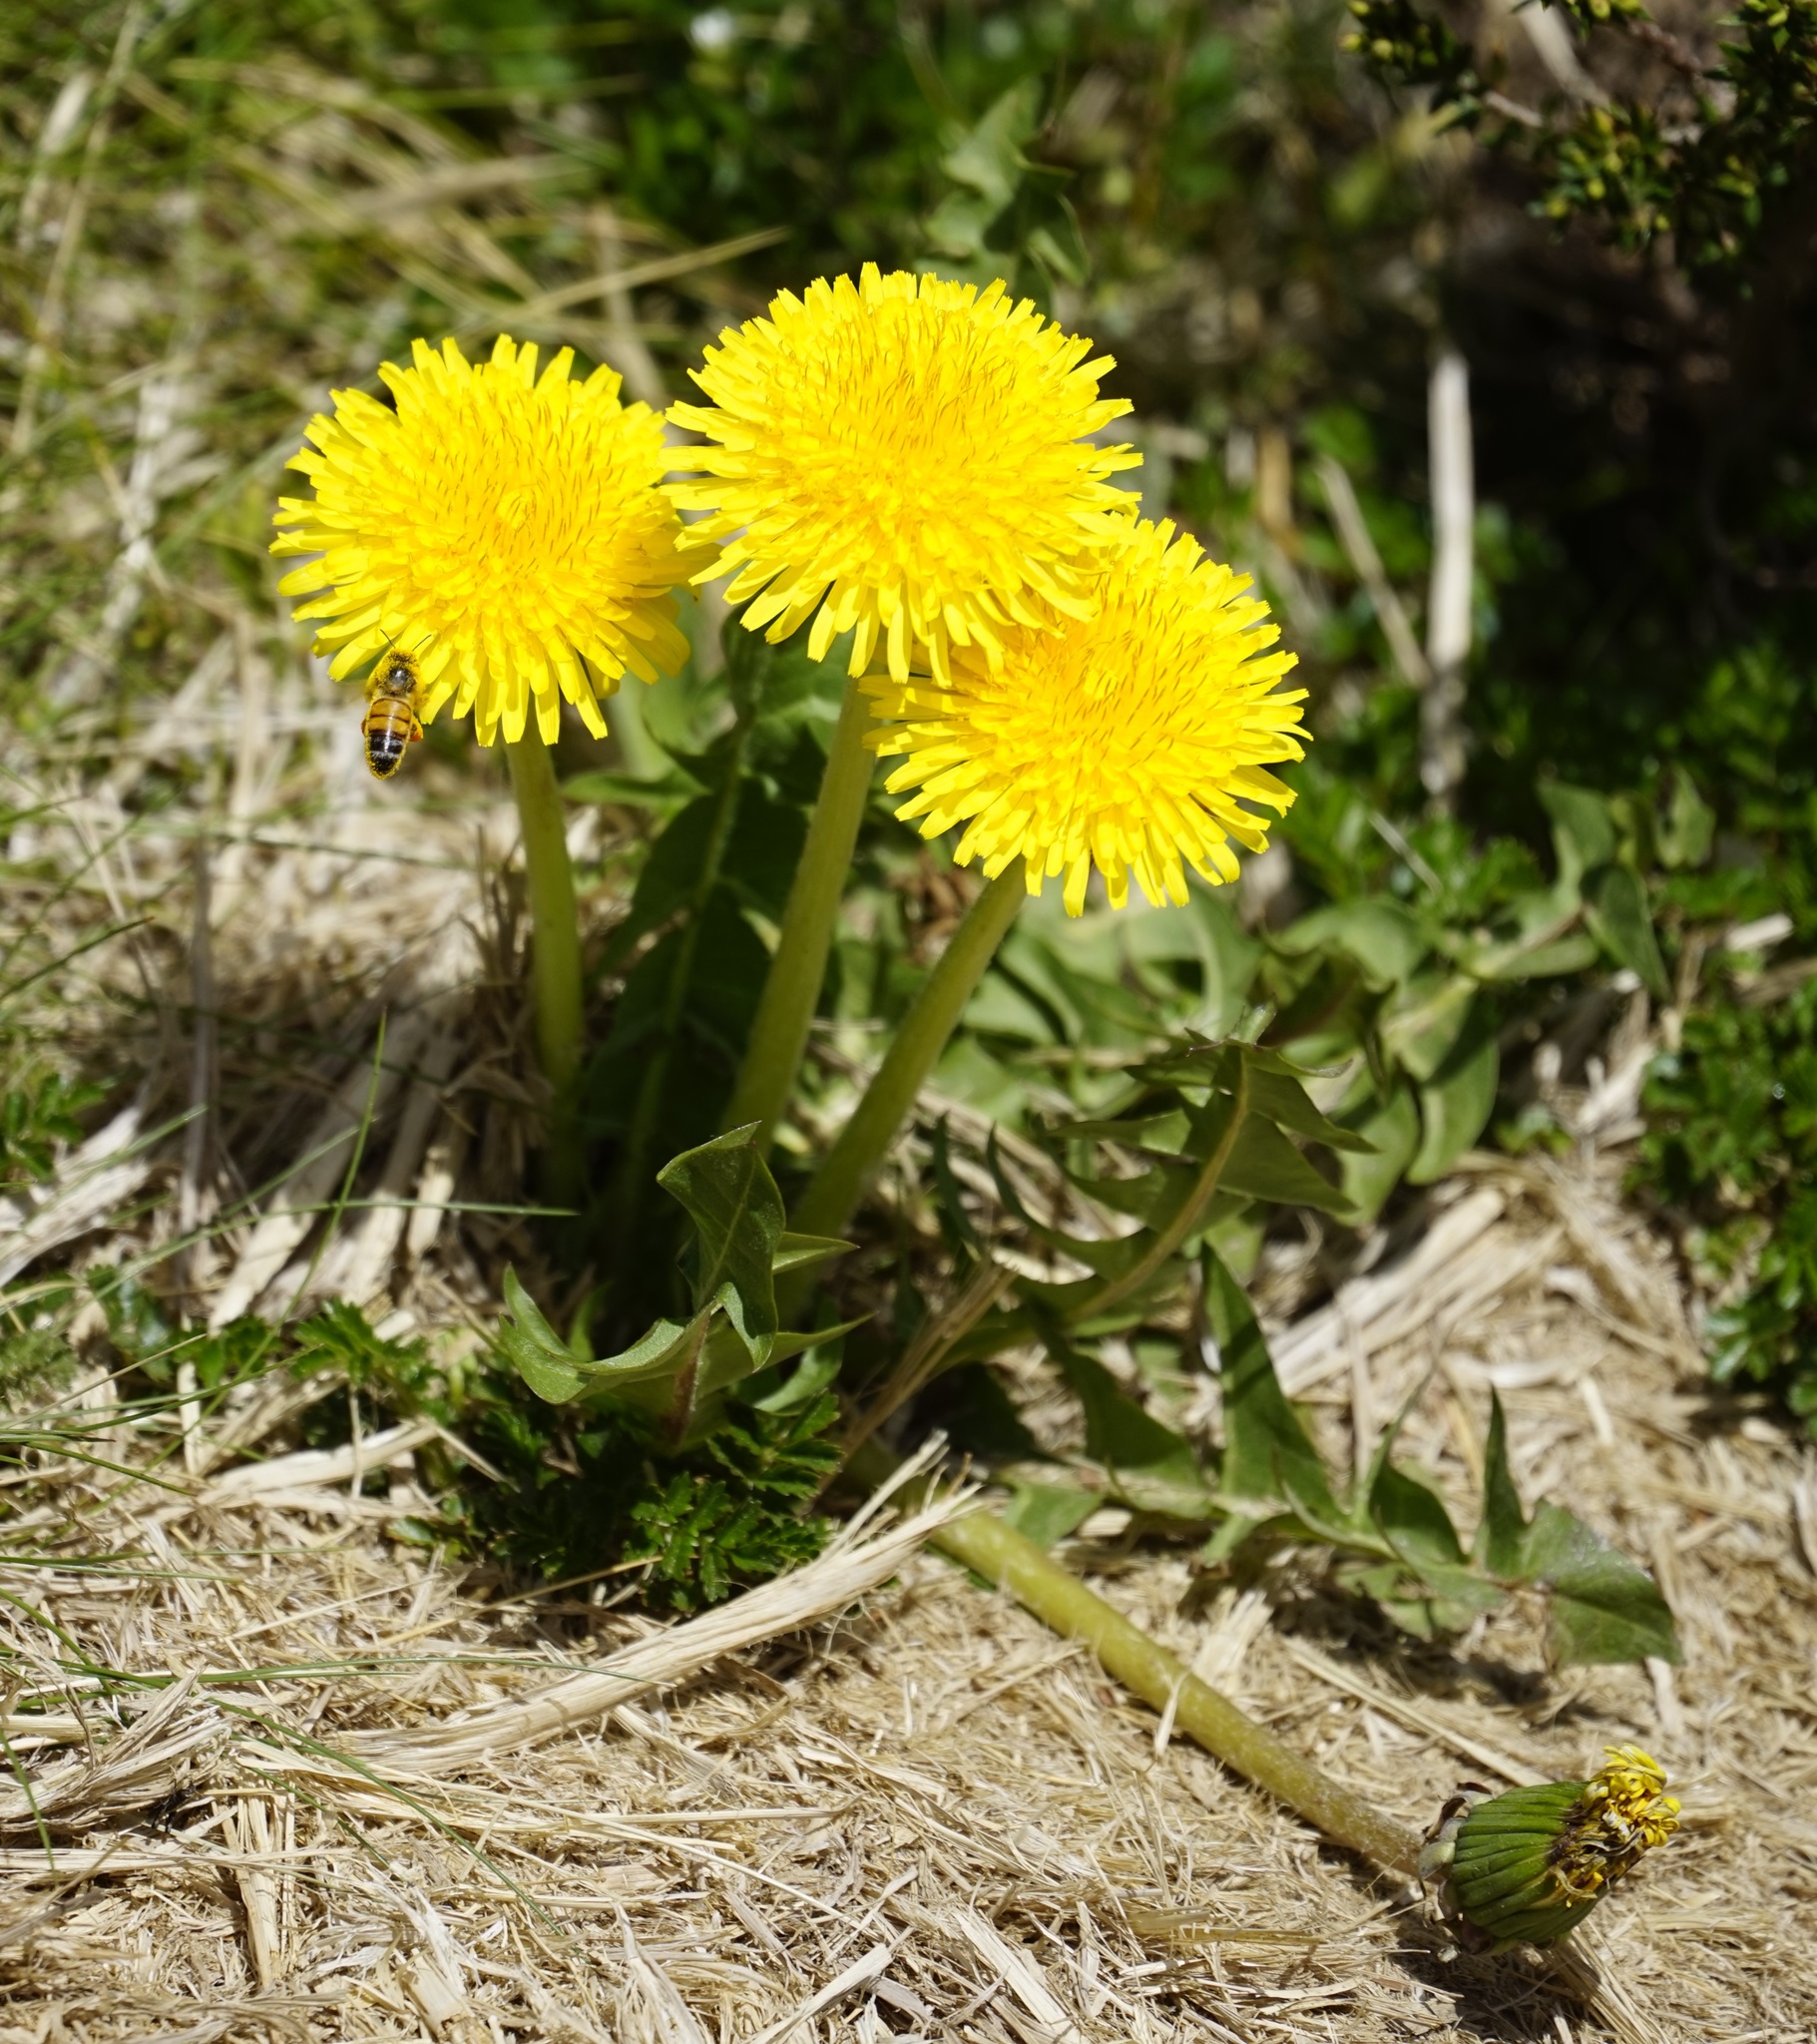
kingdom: Plantae
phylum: Tracheophyta
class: Magnoliopsida
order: Asterales
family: Asteraceae
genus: Taraxacum
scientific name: Taraxacum officinale
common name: Common dandelion
